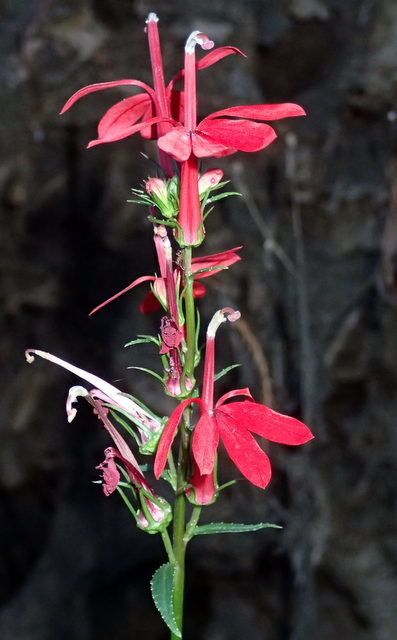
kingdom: Plantae
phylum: Tracheophyta
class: Magnoliopsida
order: Asterales
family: Campanulaceae
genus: Lobelia
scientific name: Lobelia cardinalis
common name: Cardinal flower
